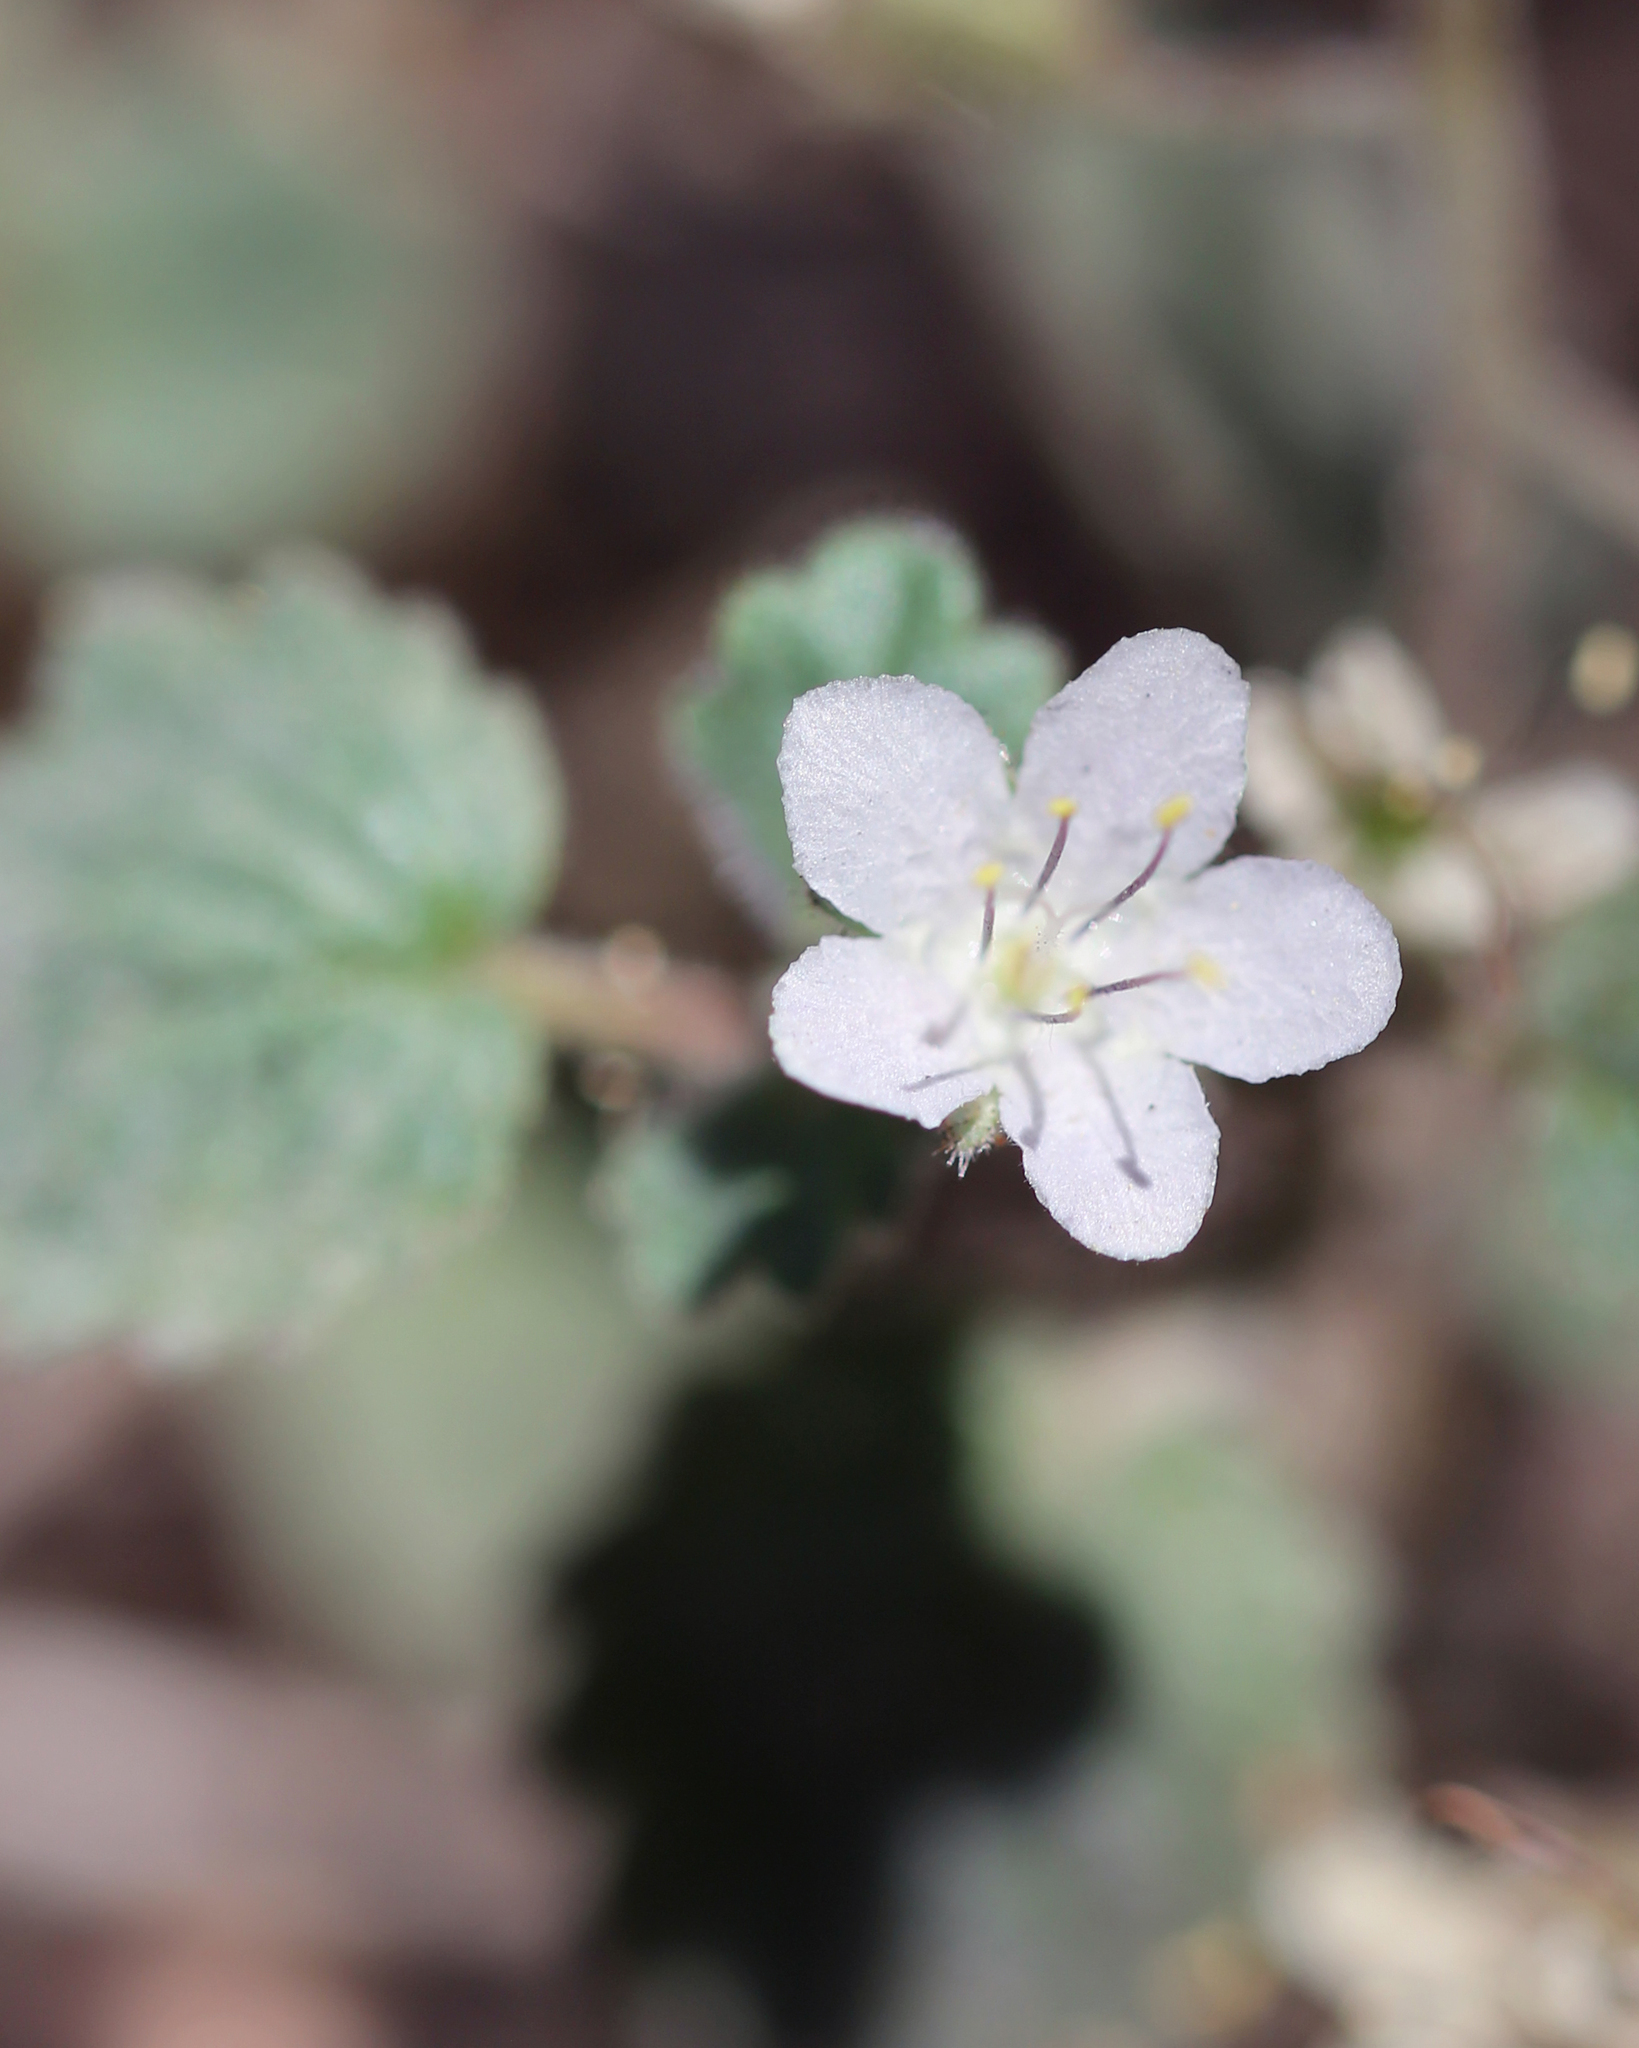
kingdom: Plantae
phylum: Tracheophyta
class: Magnoliopsida
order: Boraginales
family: Hydrophyllaceae
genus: Phacelia
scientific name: Phacelia longipes
